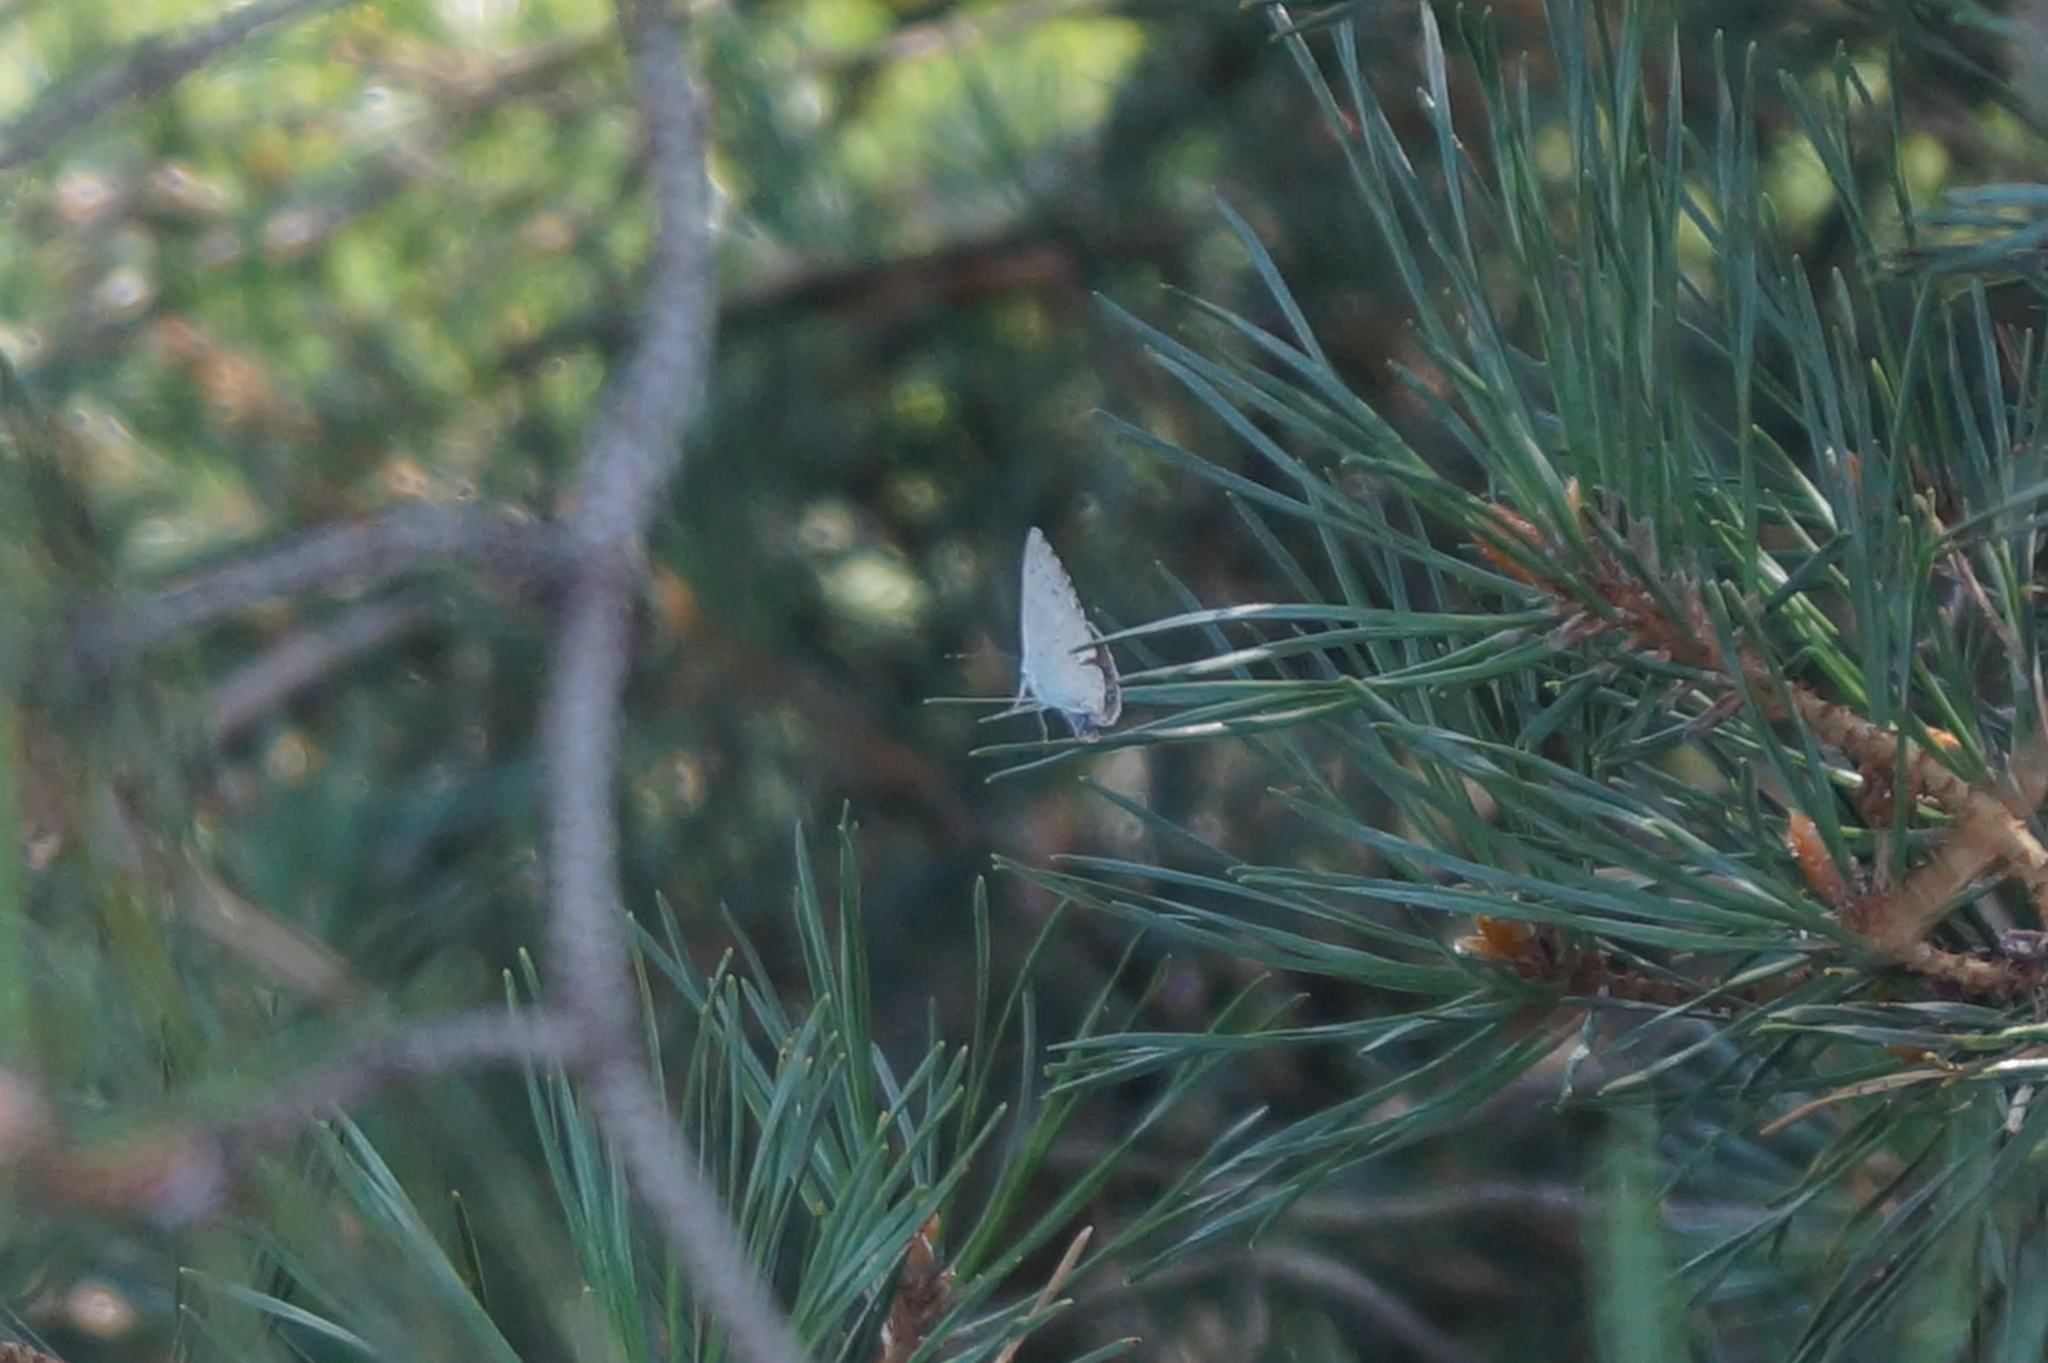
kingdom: Animalia
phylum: Arthropoda
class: Insecta
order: Lepidoptera
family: Lycaenidae
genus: Celastrina
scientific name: Celastrina argiolus
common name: Holly blue
